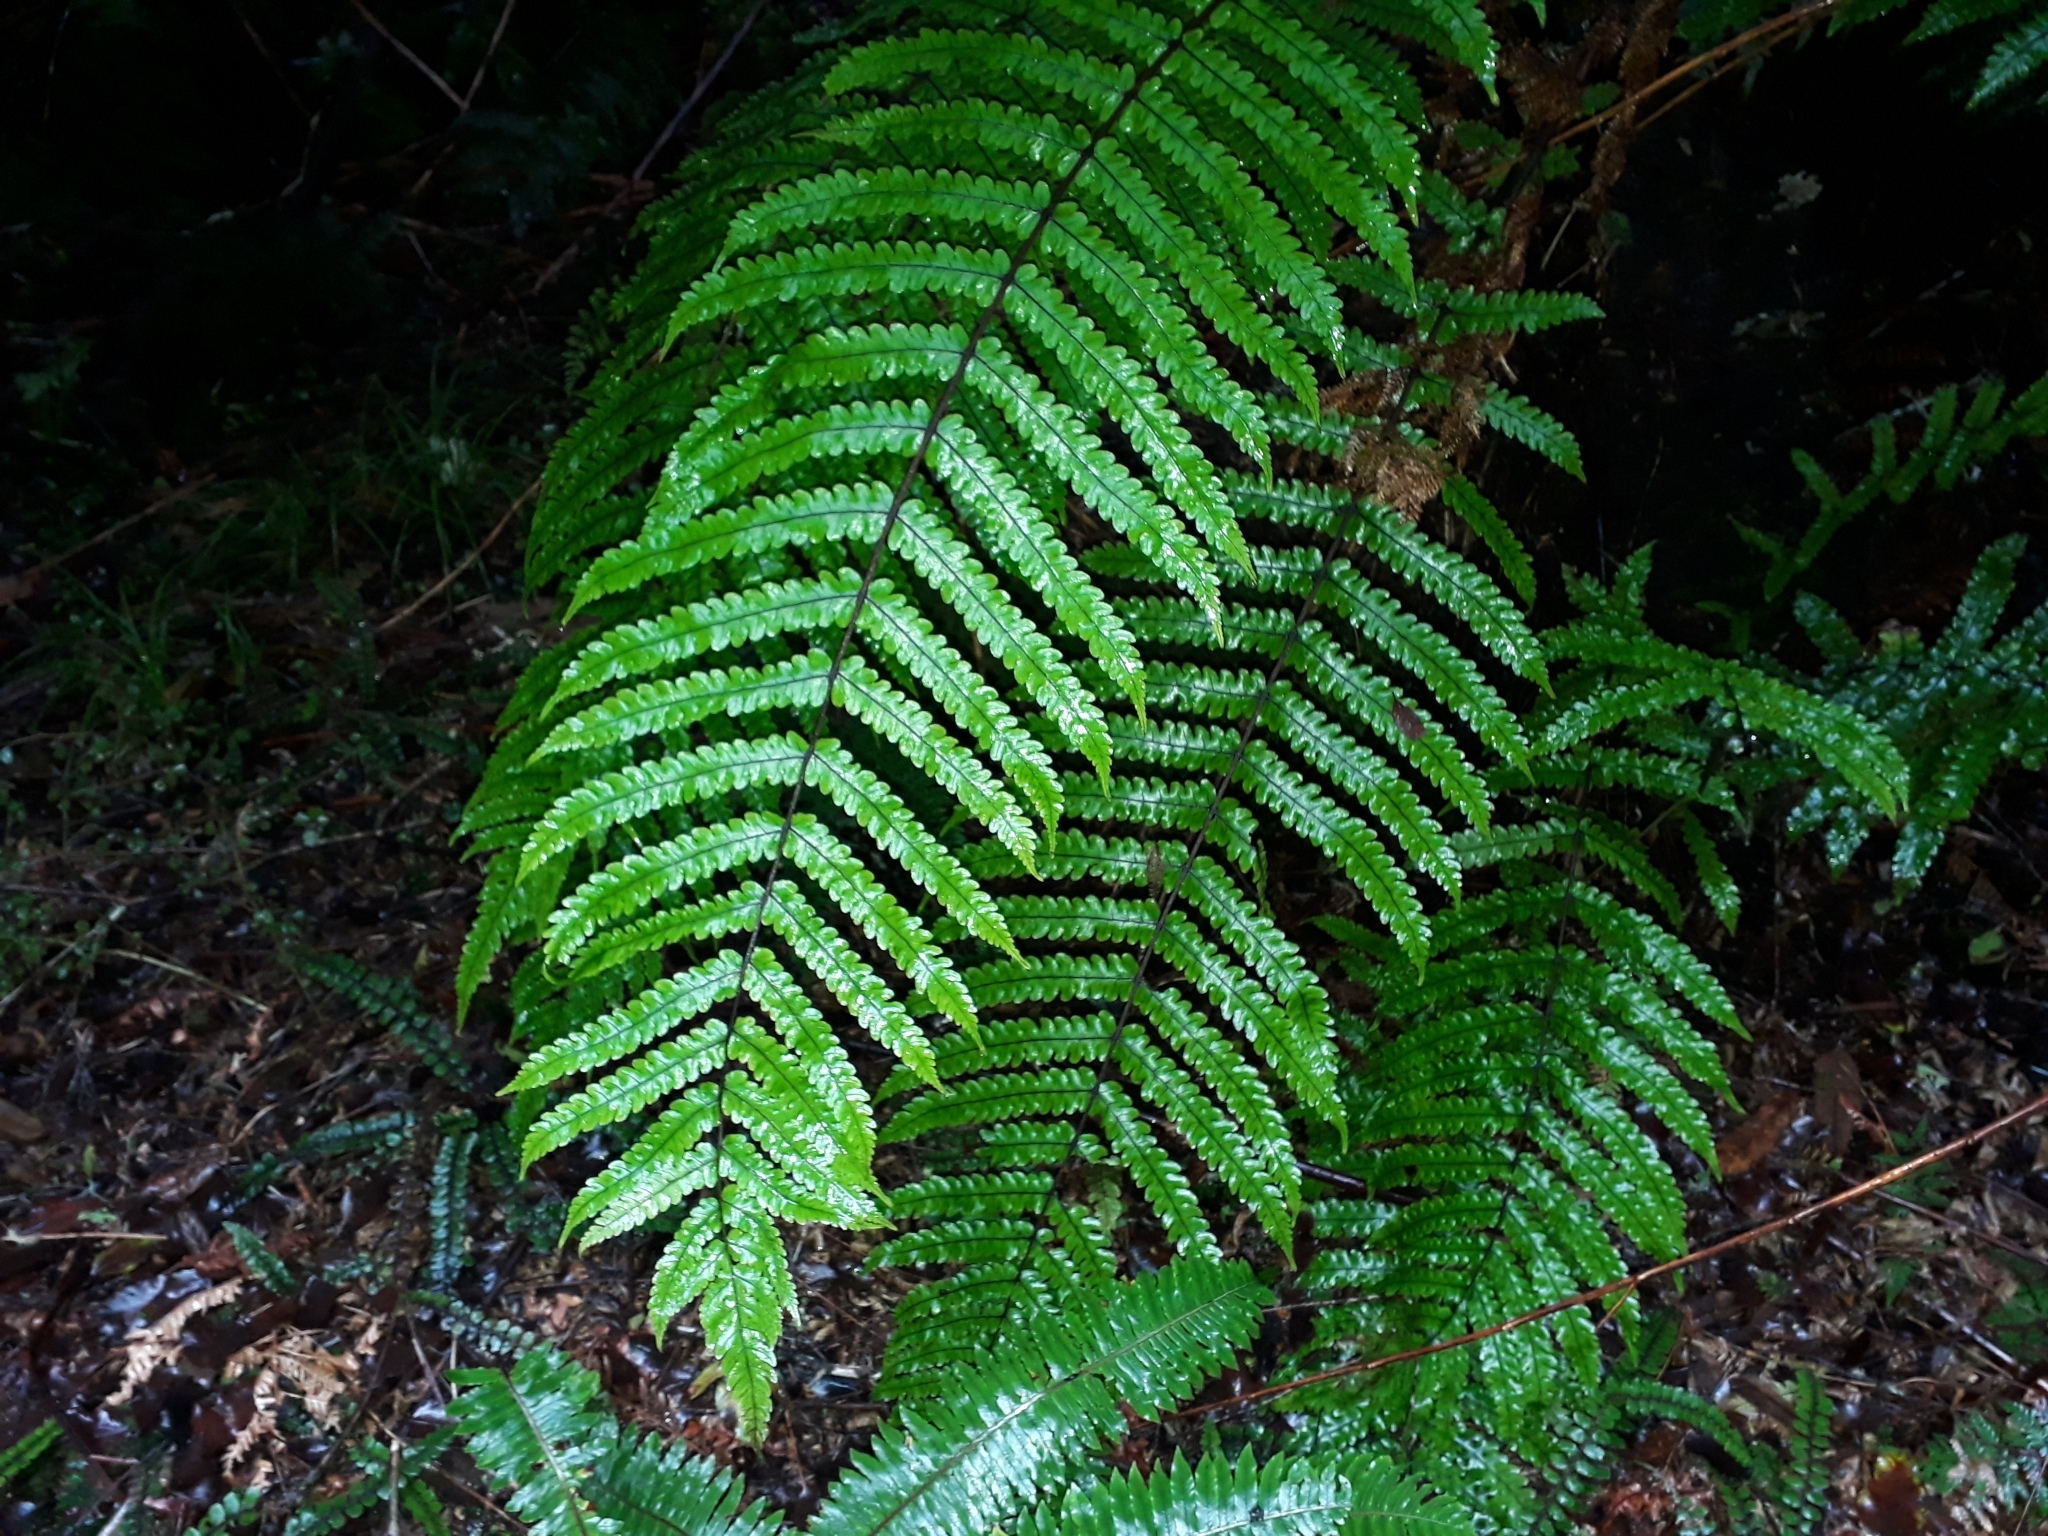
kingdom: Plantae
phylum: Tracheophyta
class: Polypodiopsida
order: Polypodiales
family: Thelypteridaceae
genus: Pakau
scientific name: Pakau pennigera
